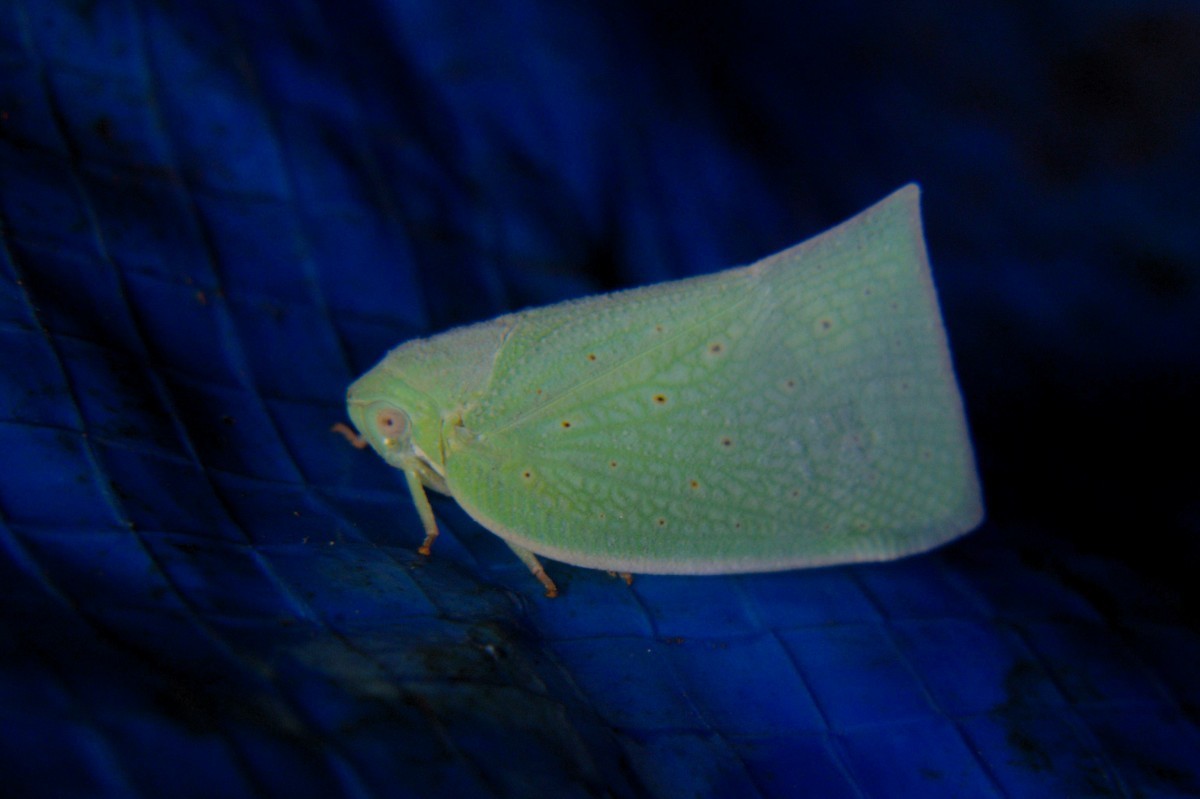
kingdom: Animalia
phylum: Arthropoda
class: Insecta
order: Hemiptera
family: Flatidae
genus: Flata
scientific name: Flata stellaris
